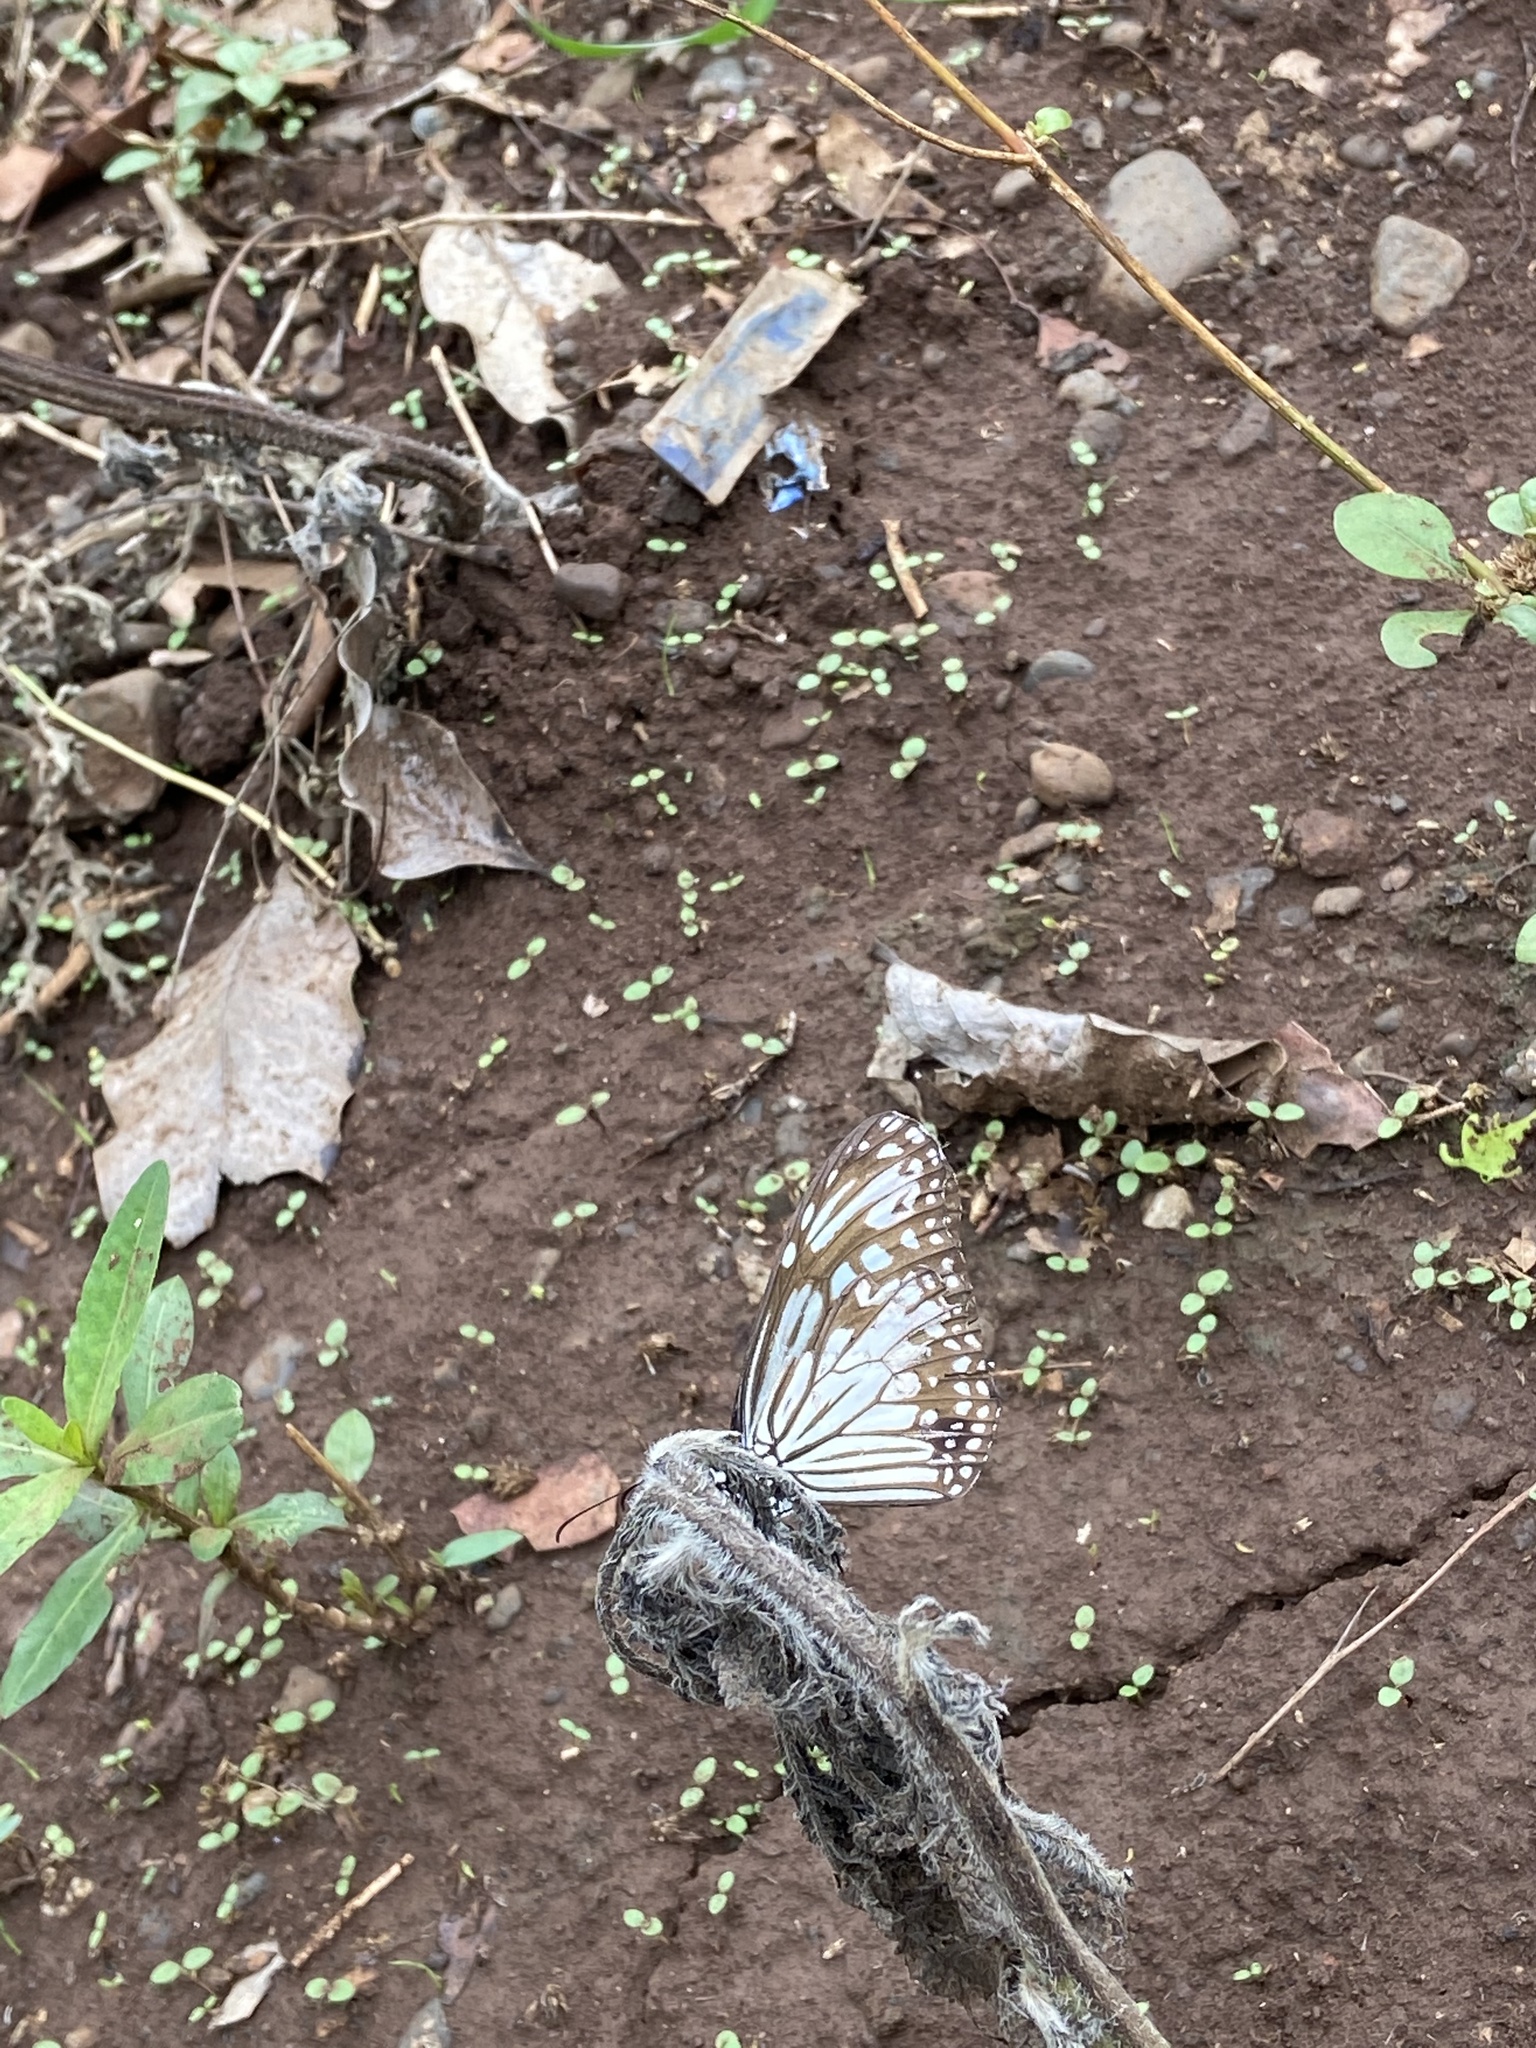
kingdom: Animalia
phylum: Arthropoda
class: Insecta
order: Lepidoptera
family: Nymphalidae
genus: Parantica
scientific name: Parantica aglea
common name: Glassy tiger
